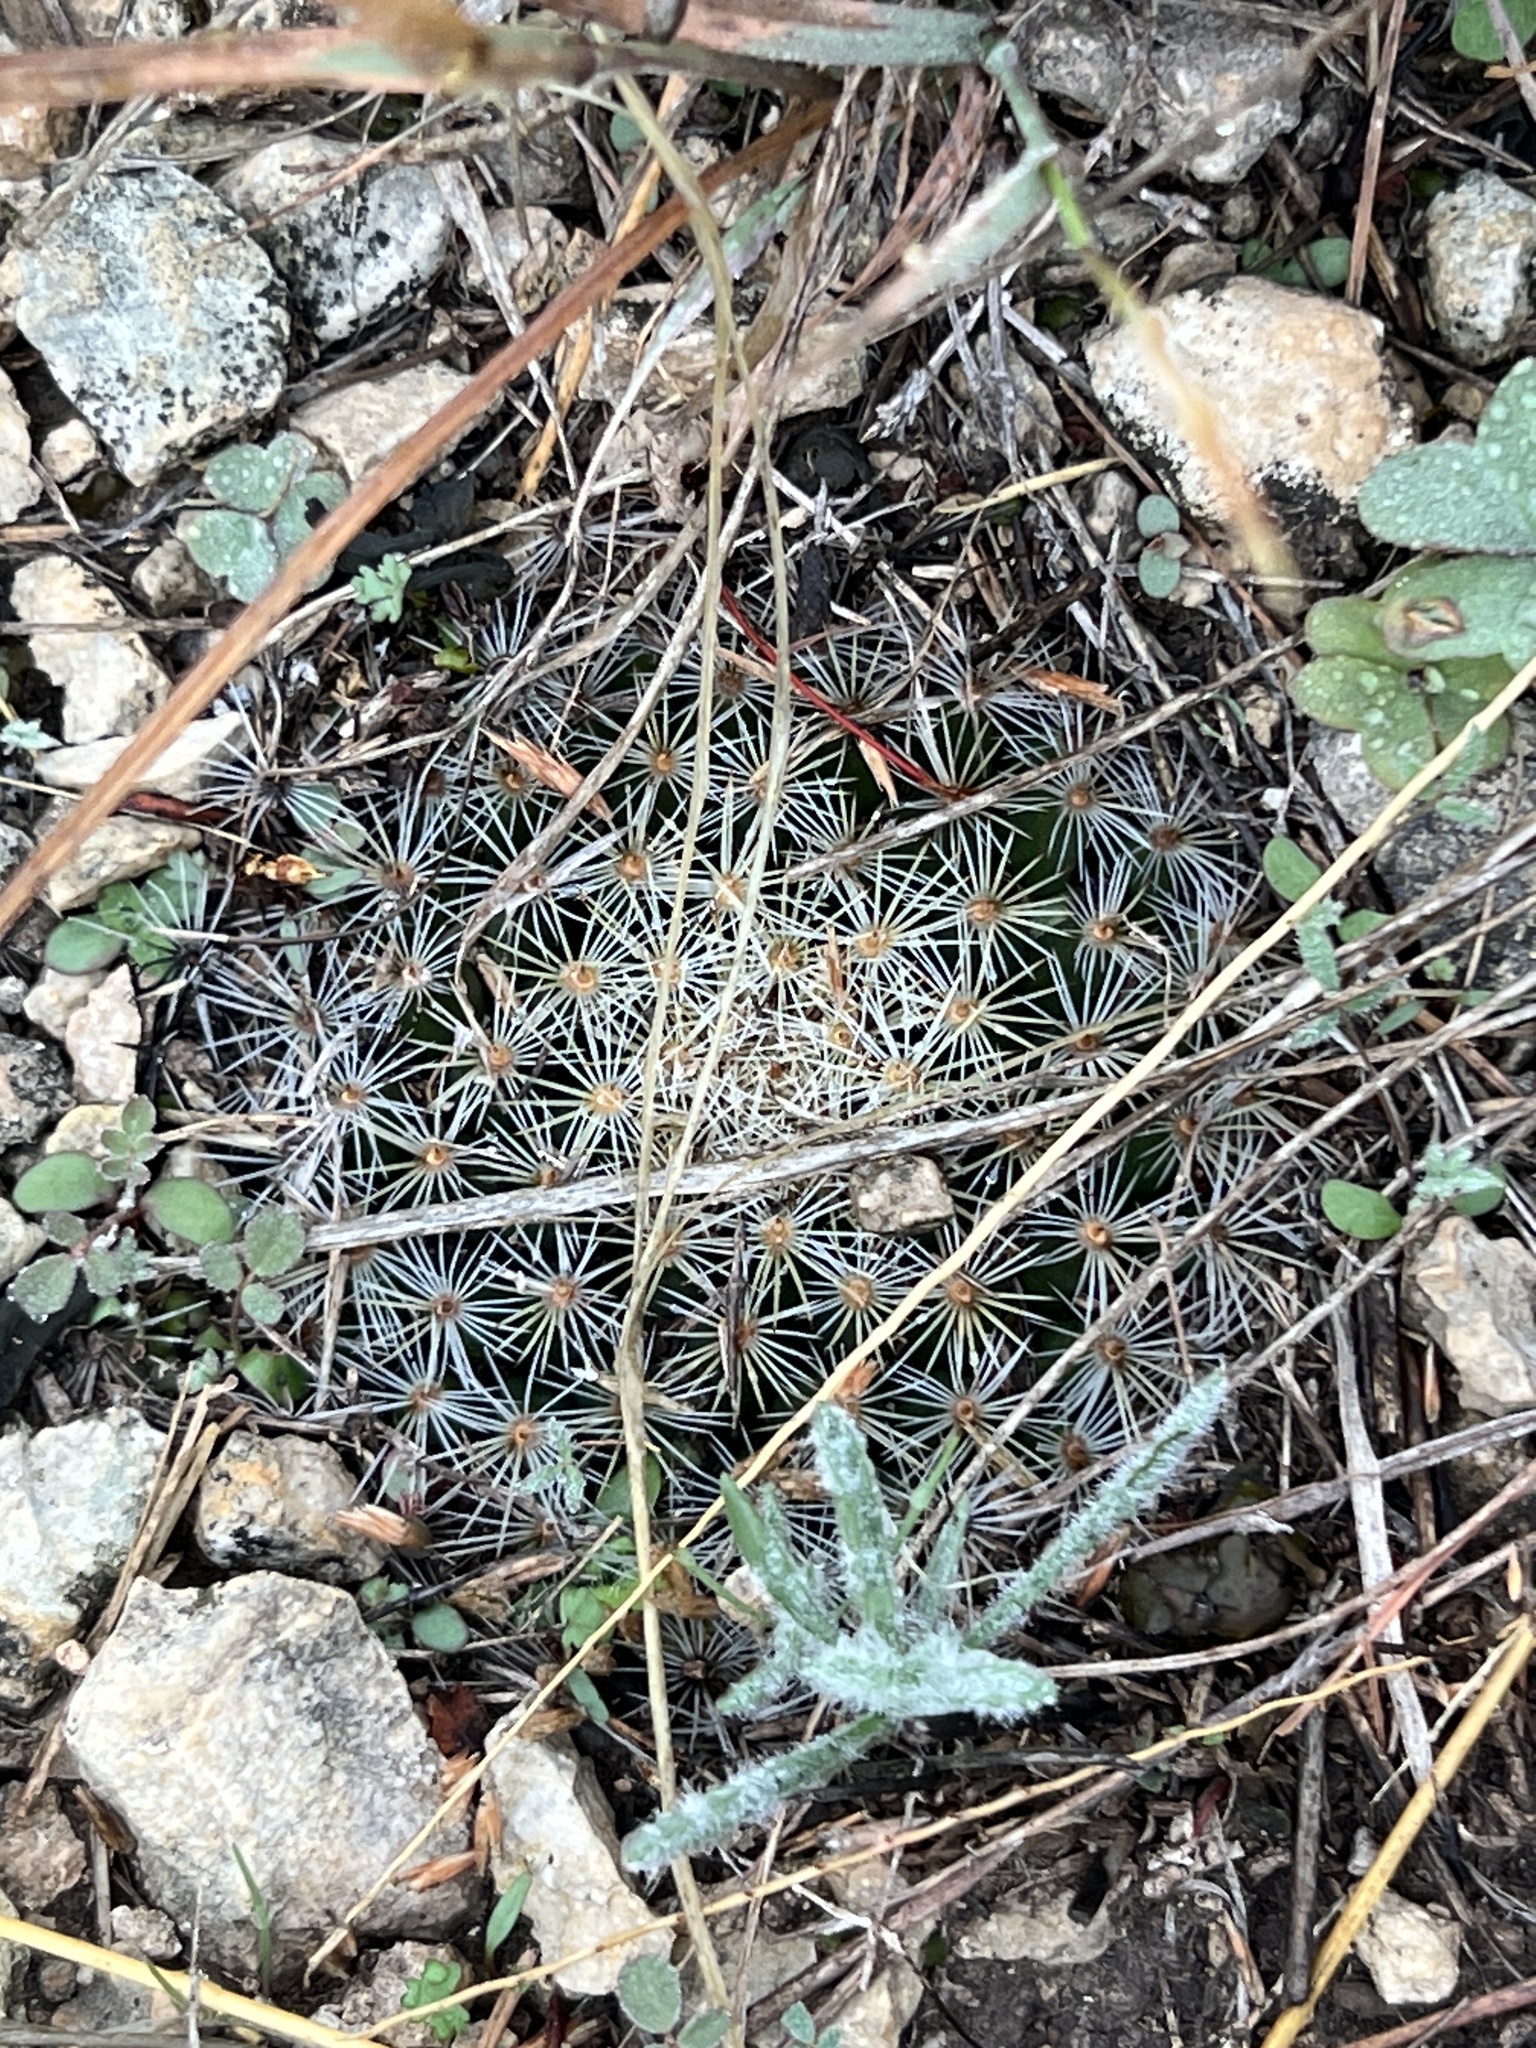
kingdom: Plantae
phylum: Tracheophyta
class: Magnoliopsida
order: Caryophyllales
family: Cactaceae
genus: Mammillaria
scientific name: Mammillaria heyderi
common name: Little nipple cactus
